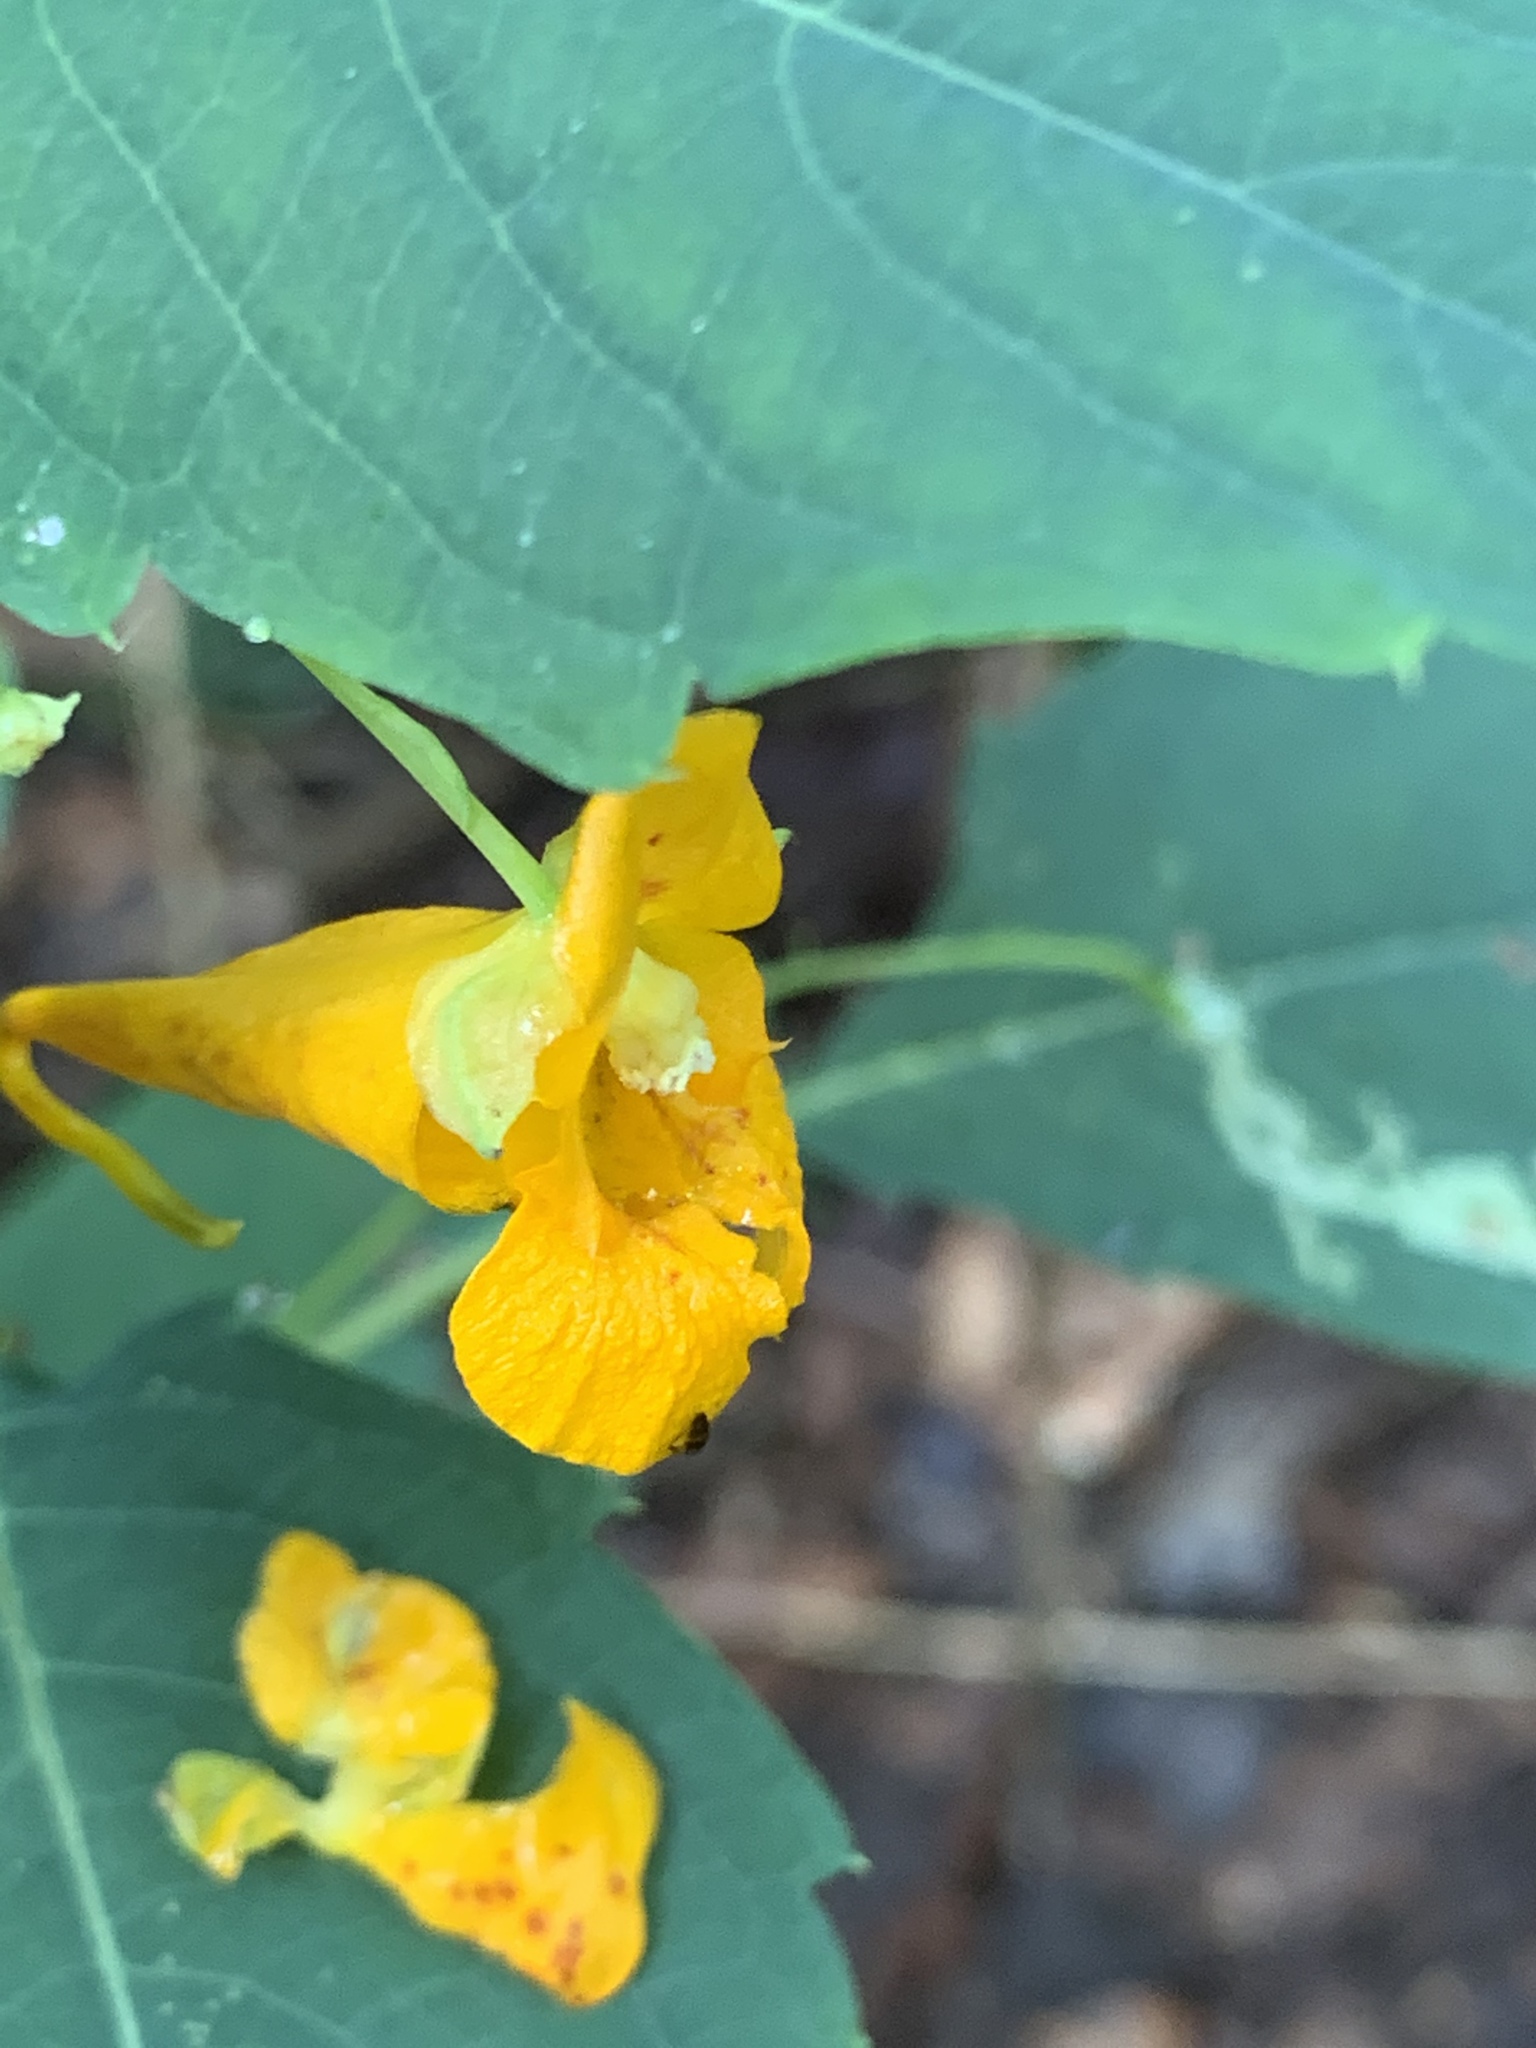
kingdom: Plantae
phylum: Tracheophyta
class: Magnoliopsida
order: Ericales
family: Balsaminaceae
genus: Impatiens
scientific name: Impatiens capensis
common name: Orange balsam
